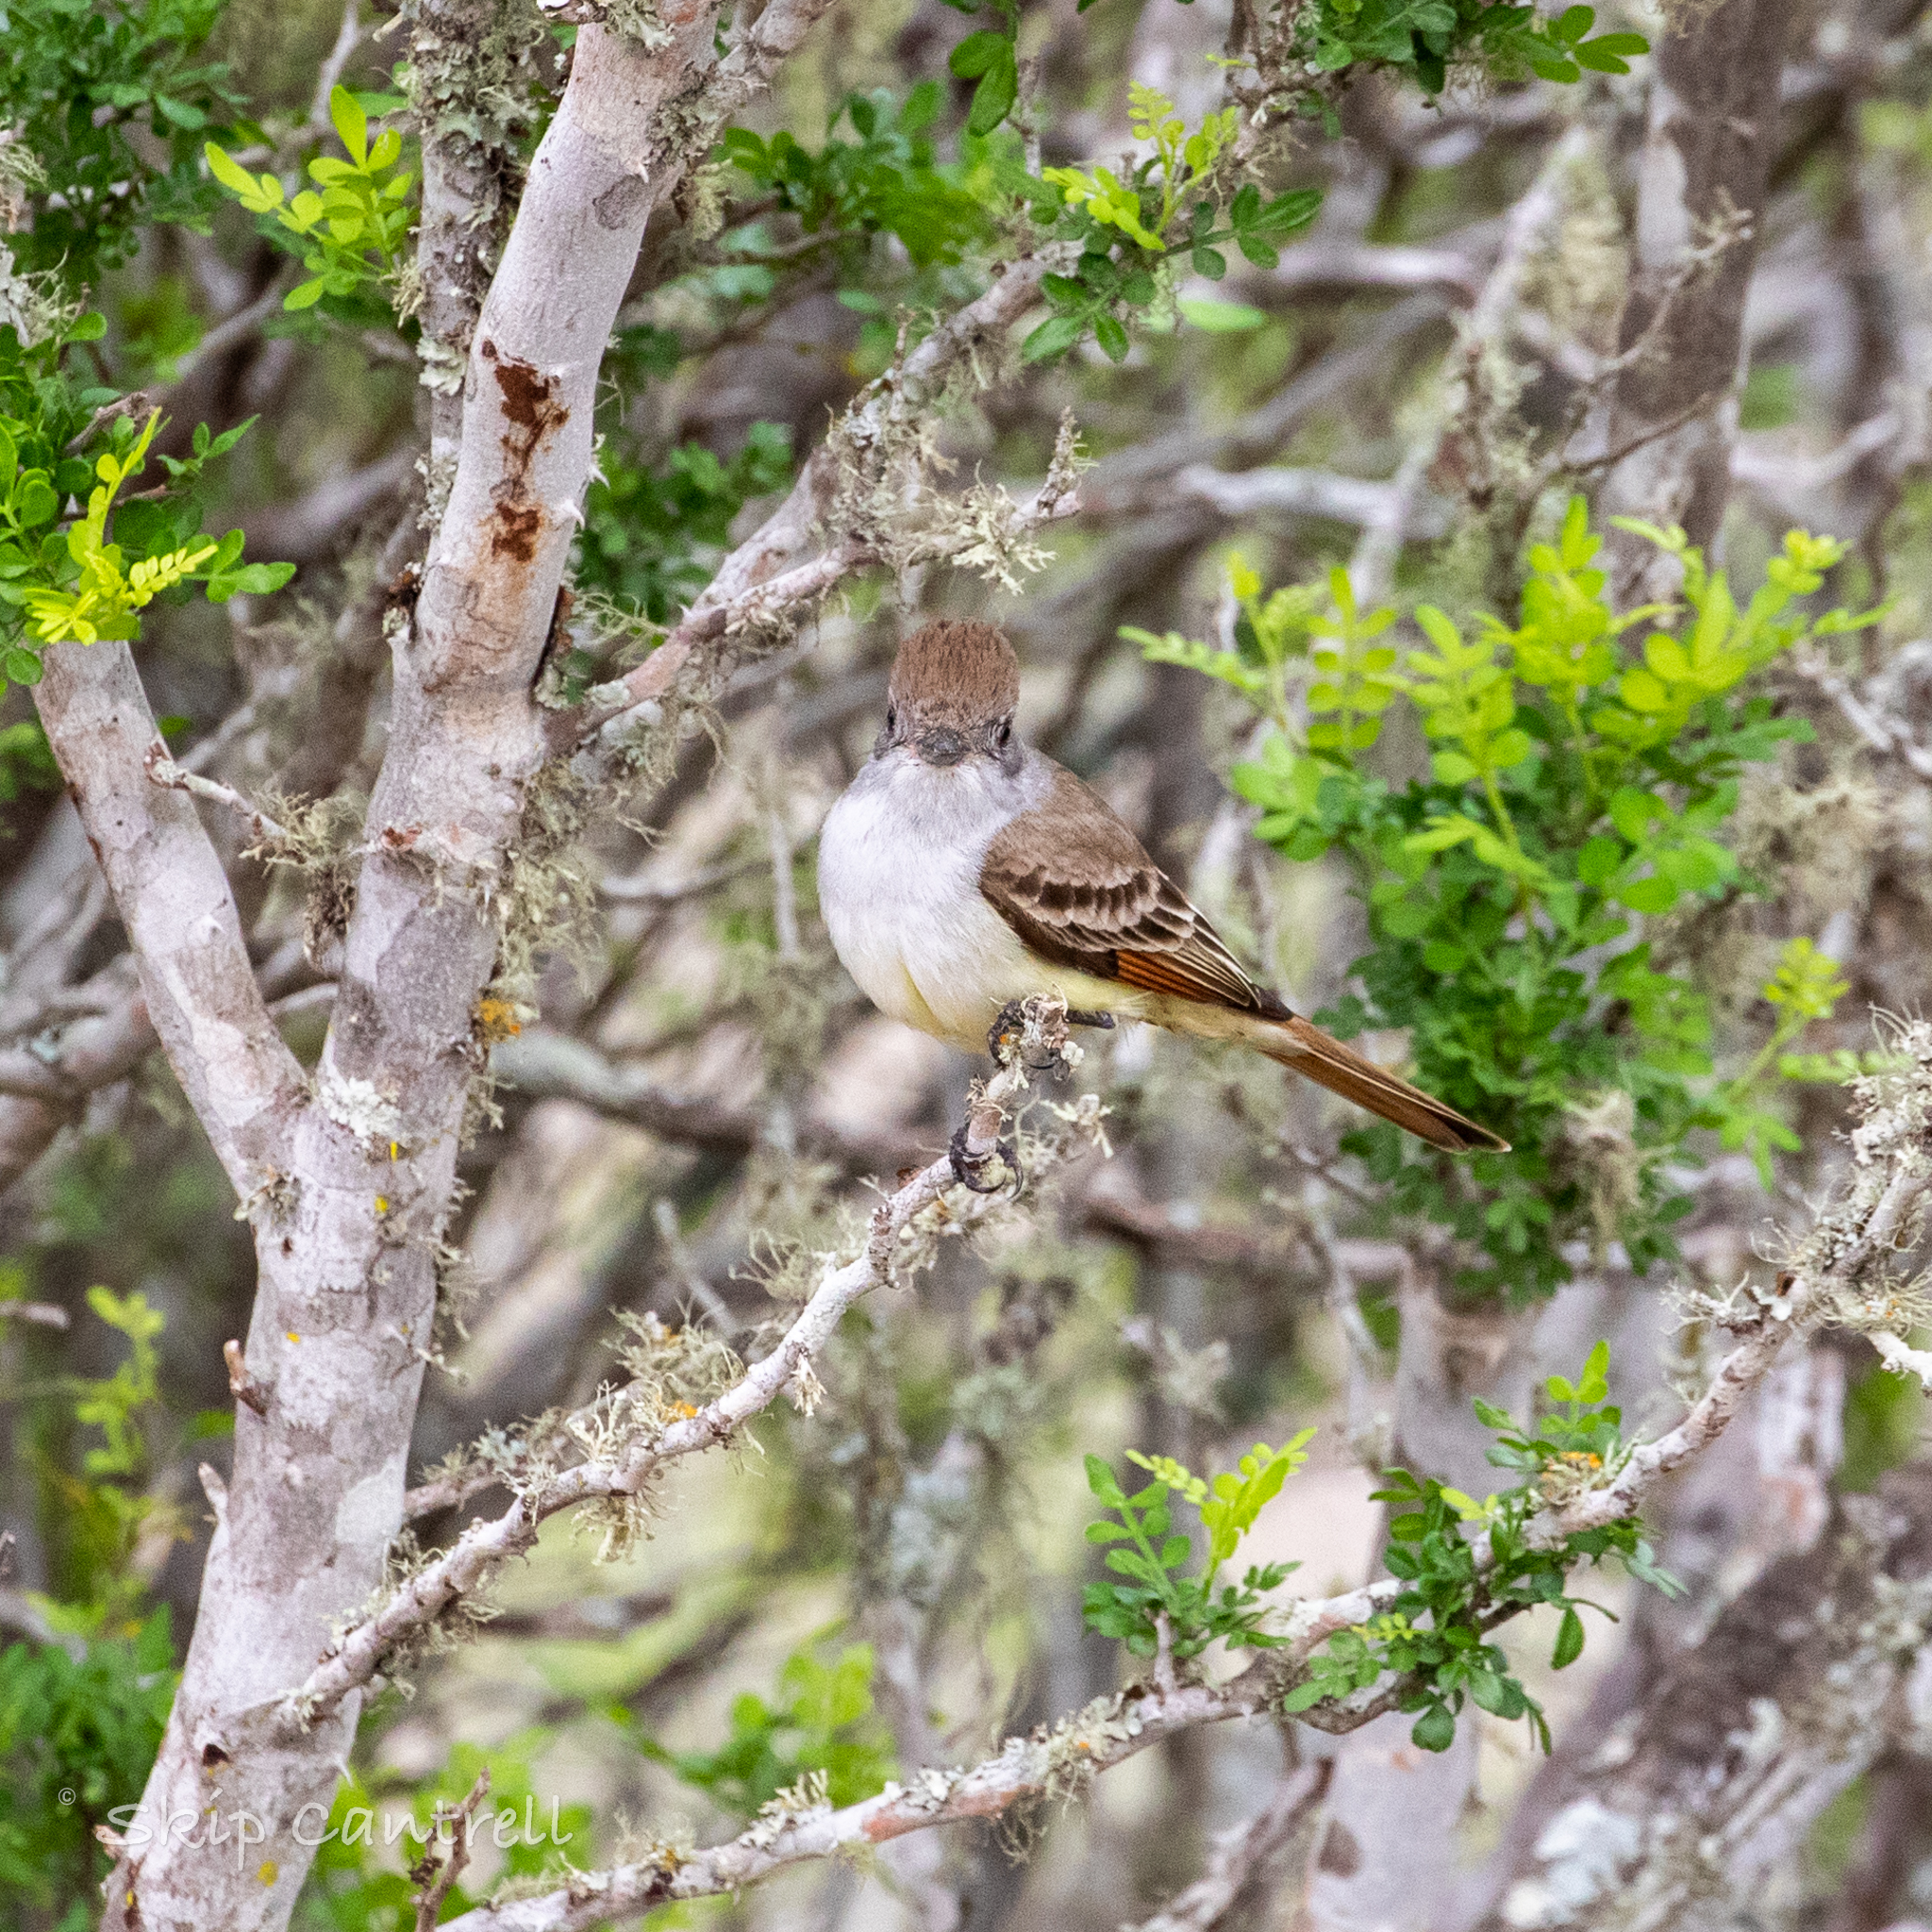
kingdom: Animalia
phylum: Chordata
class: Aves
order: Passeriformes
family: Tyrannidae
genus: Myiarchus
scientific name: Myiarchus cinerascens
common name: Ash-throated flycatcher
